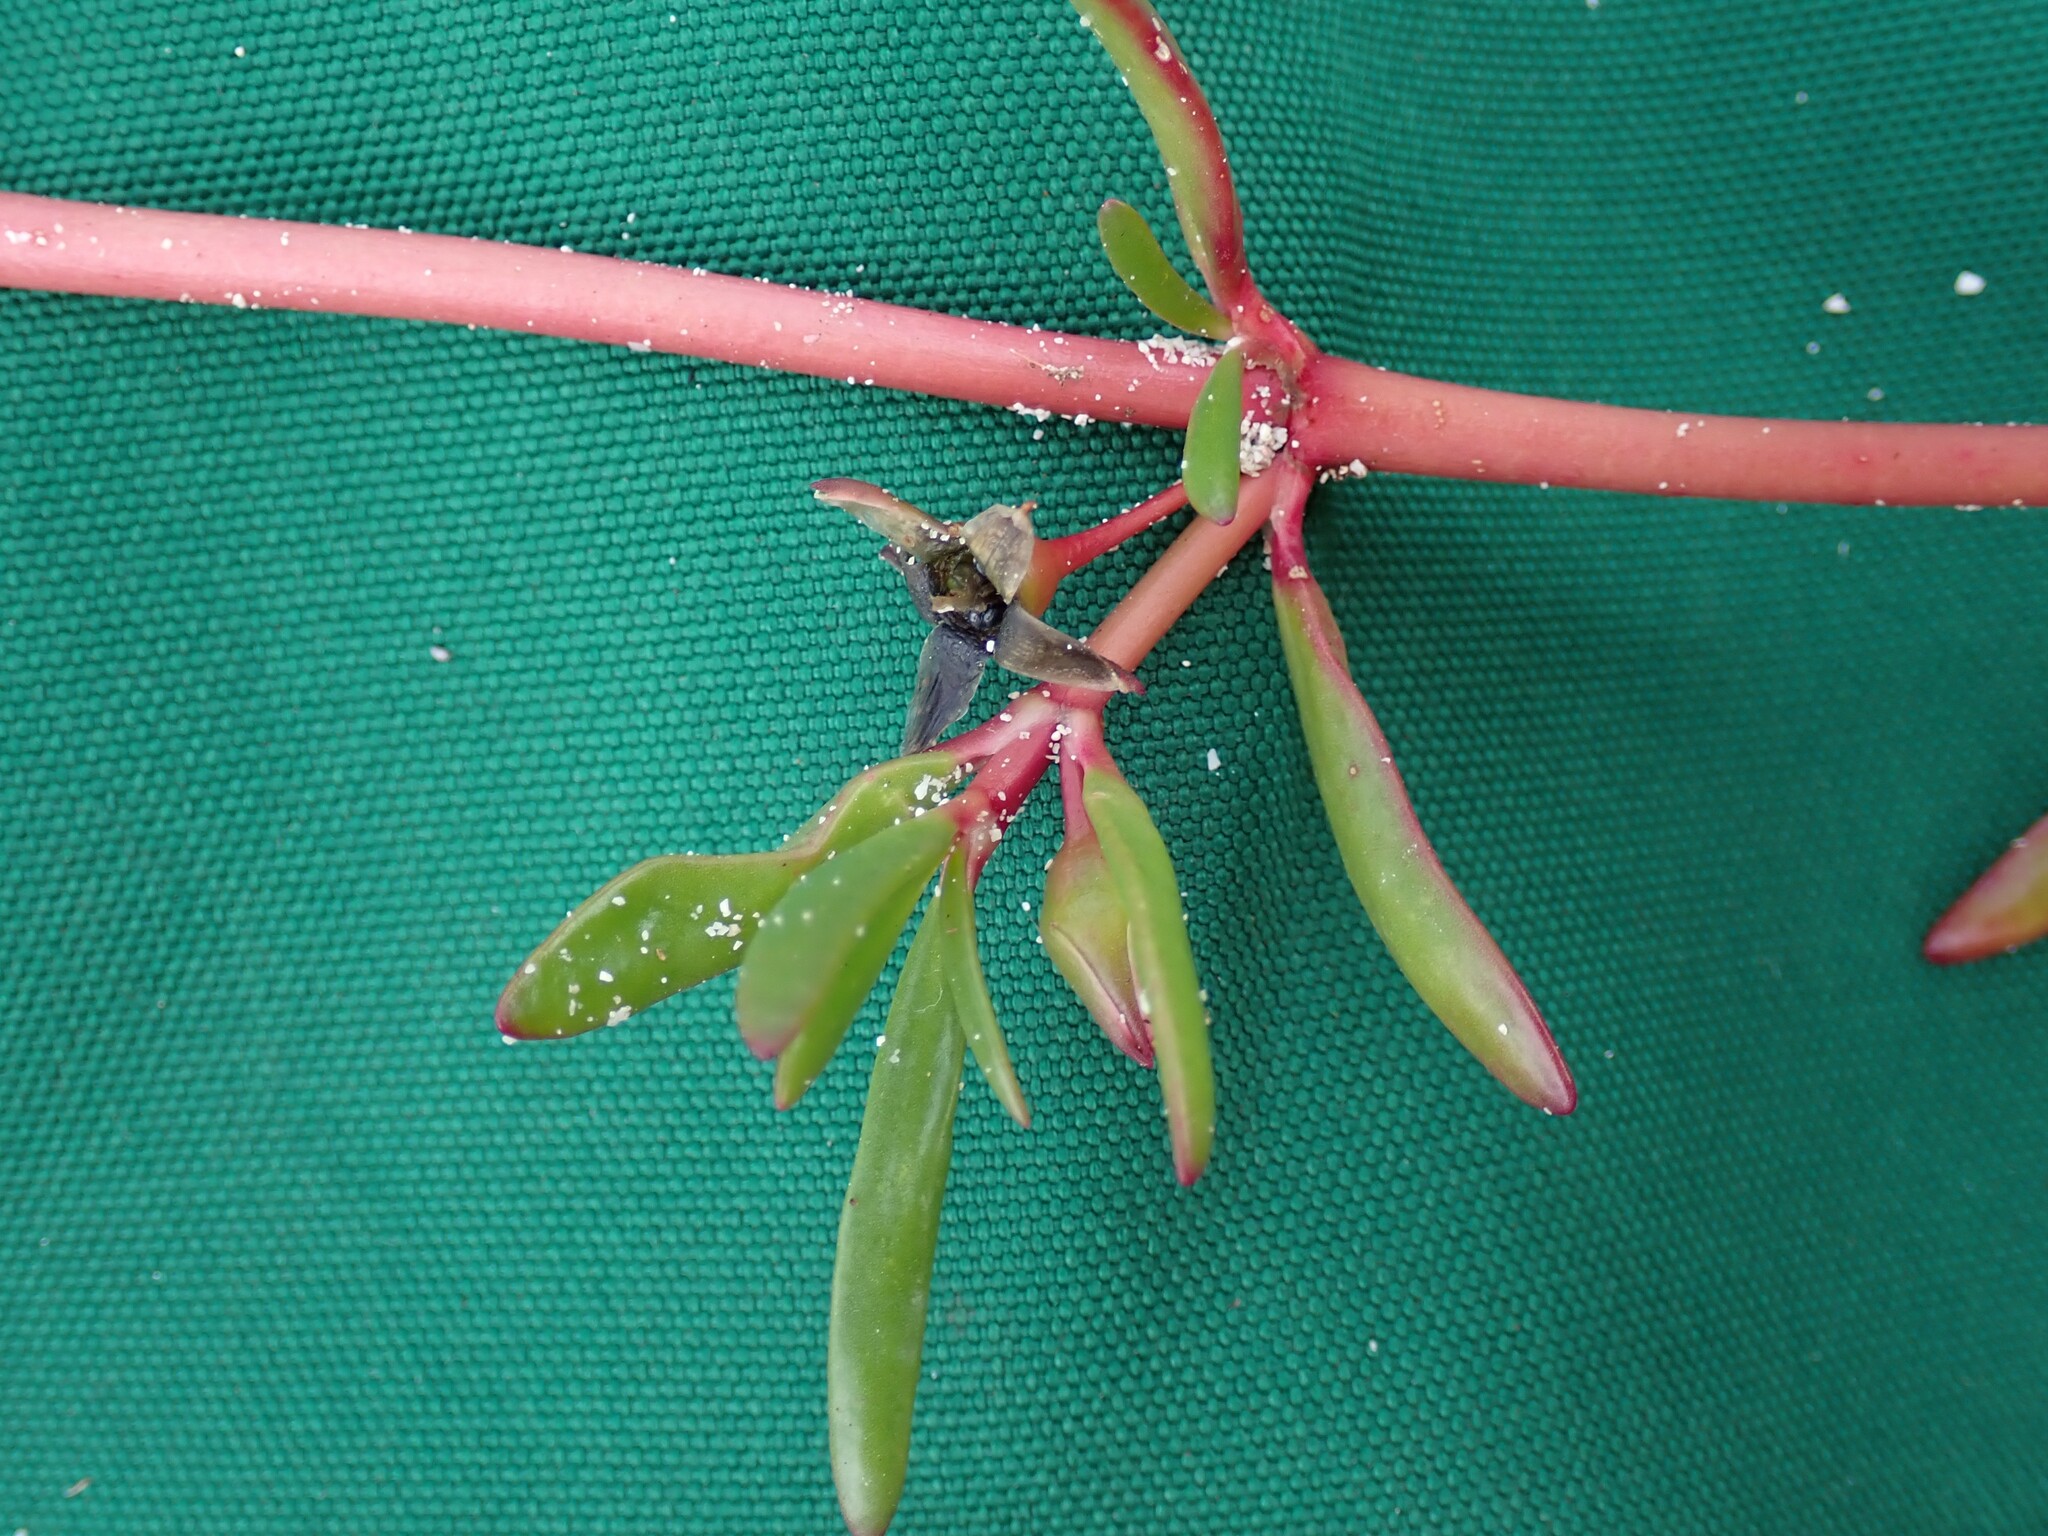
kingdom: Plantae
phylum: Tracheophyta
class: Magnoliopsida
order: Caryophyllales
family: Aizoaceae
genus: Sesuvium
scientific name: Sesuvium portulacastrum
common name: Sea-purslane
